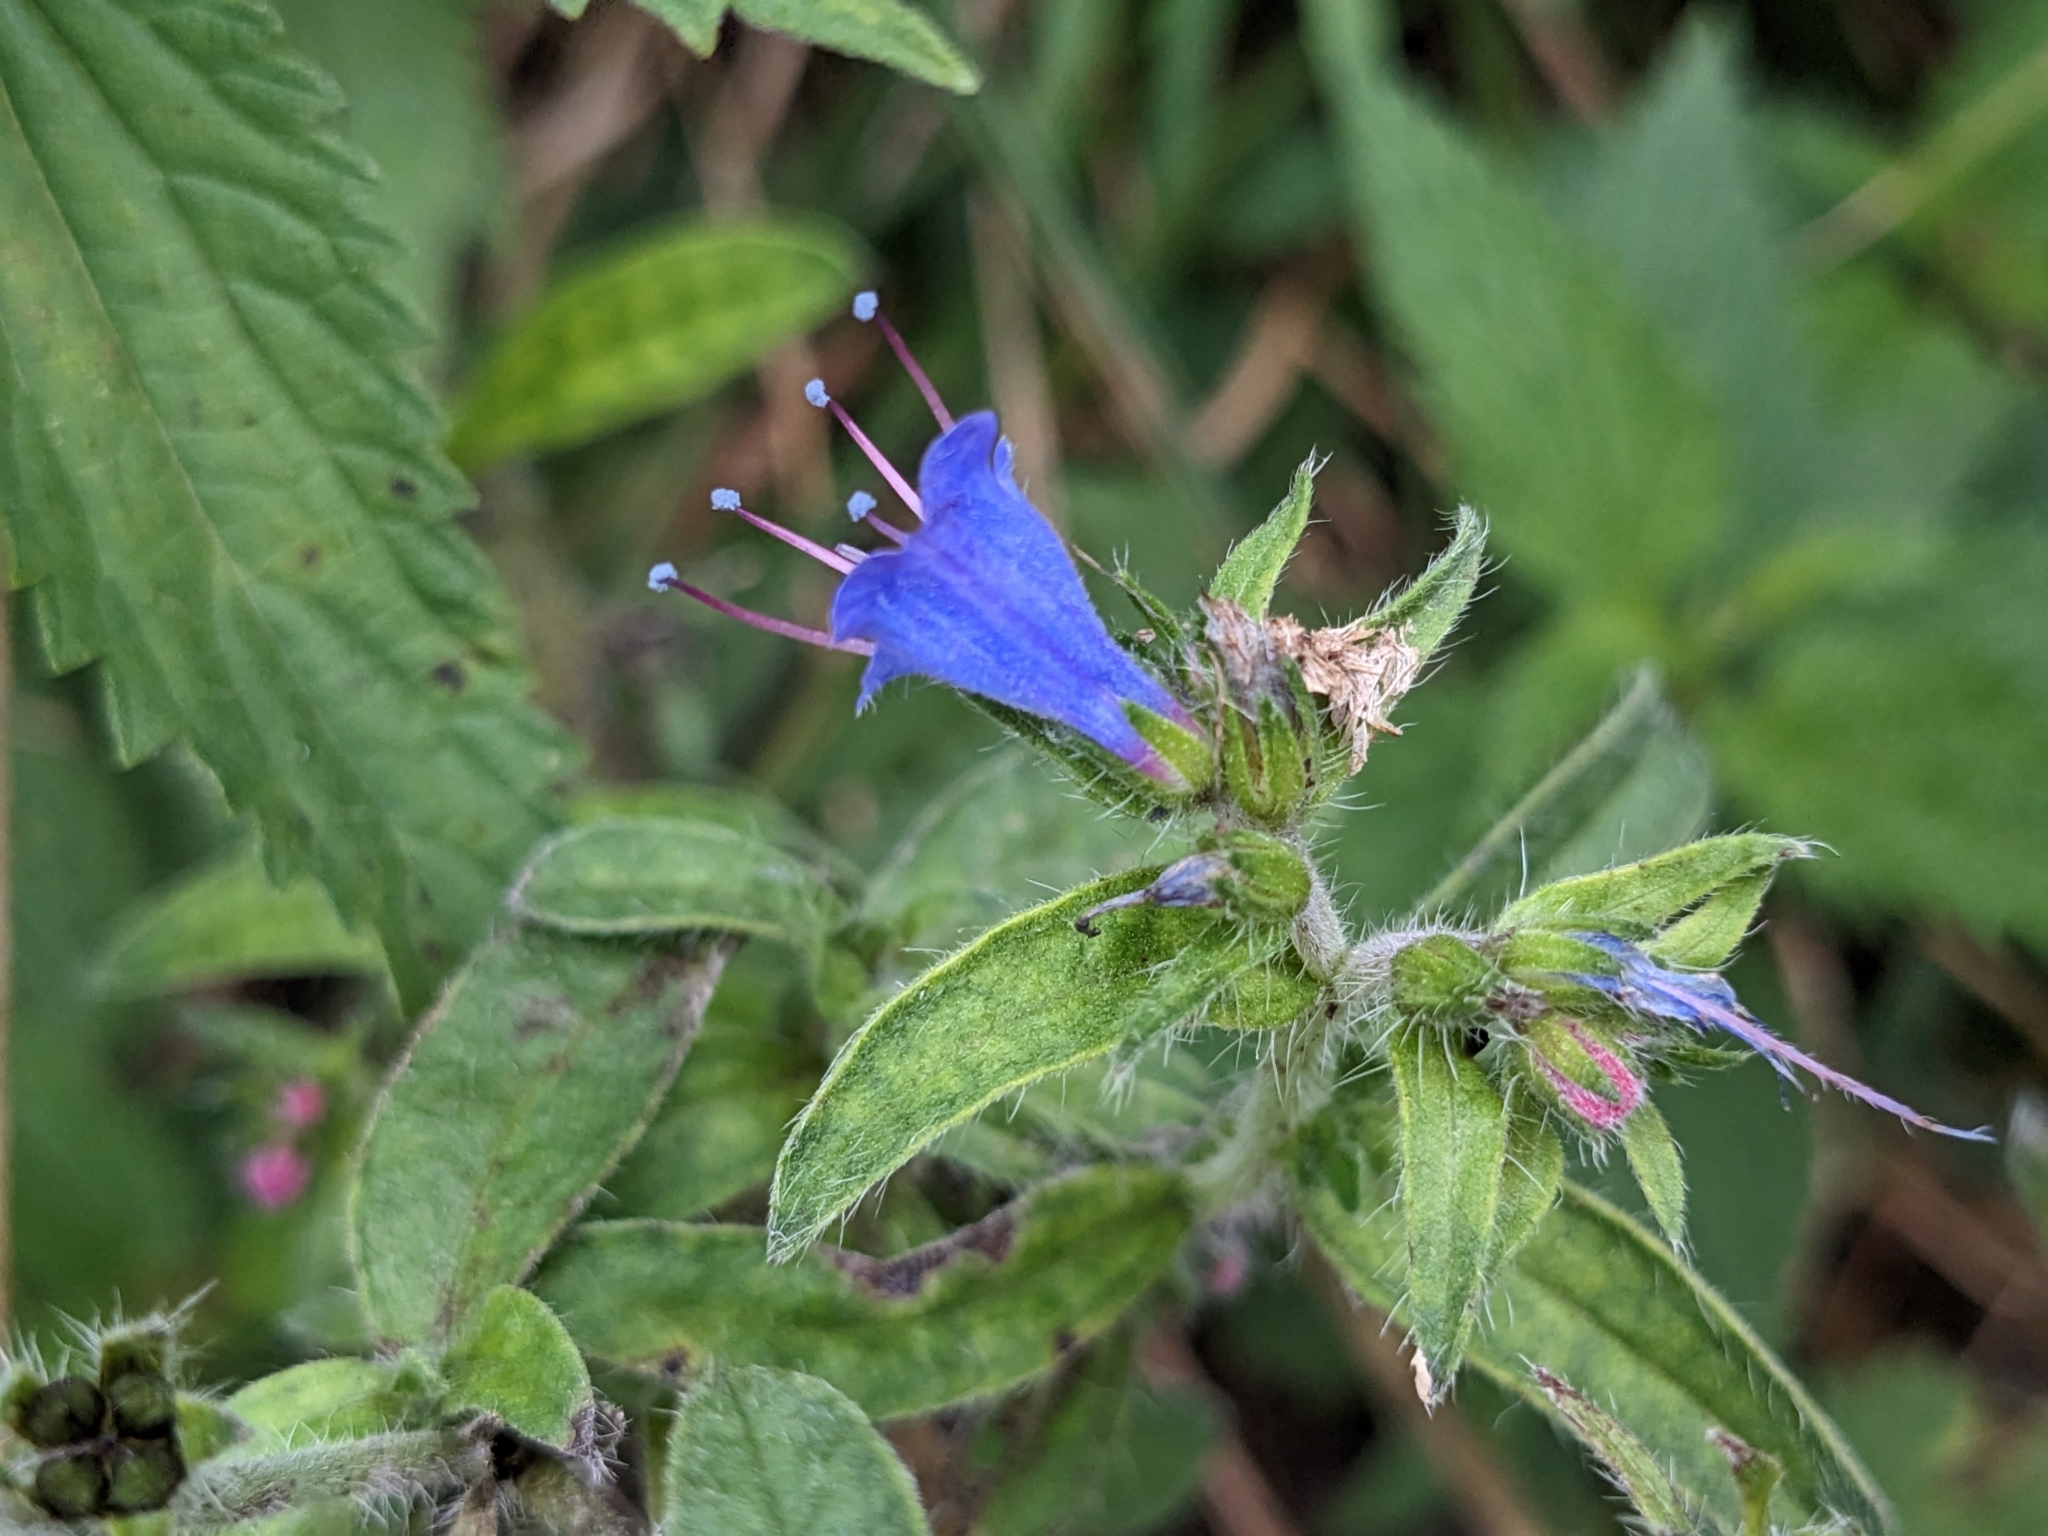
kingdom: Plantae
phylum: Tracheophyta
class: Magnoliopsida
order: Boraginales
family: Boraginaceae
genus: Echium
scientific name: Echium vulgare
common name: Common viper's bugloss
